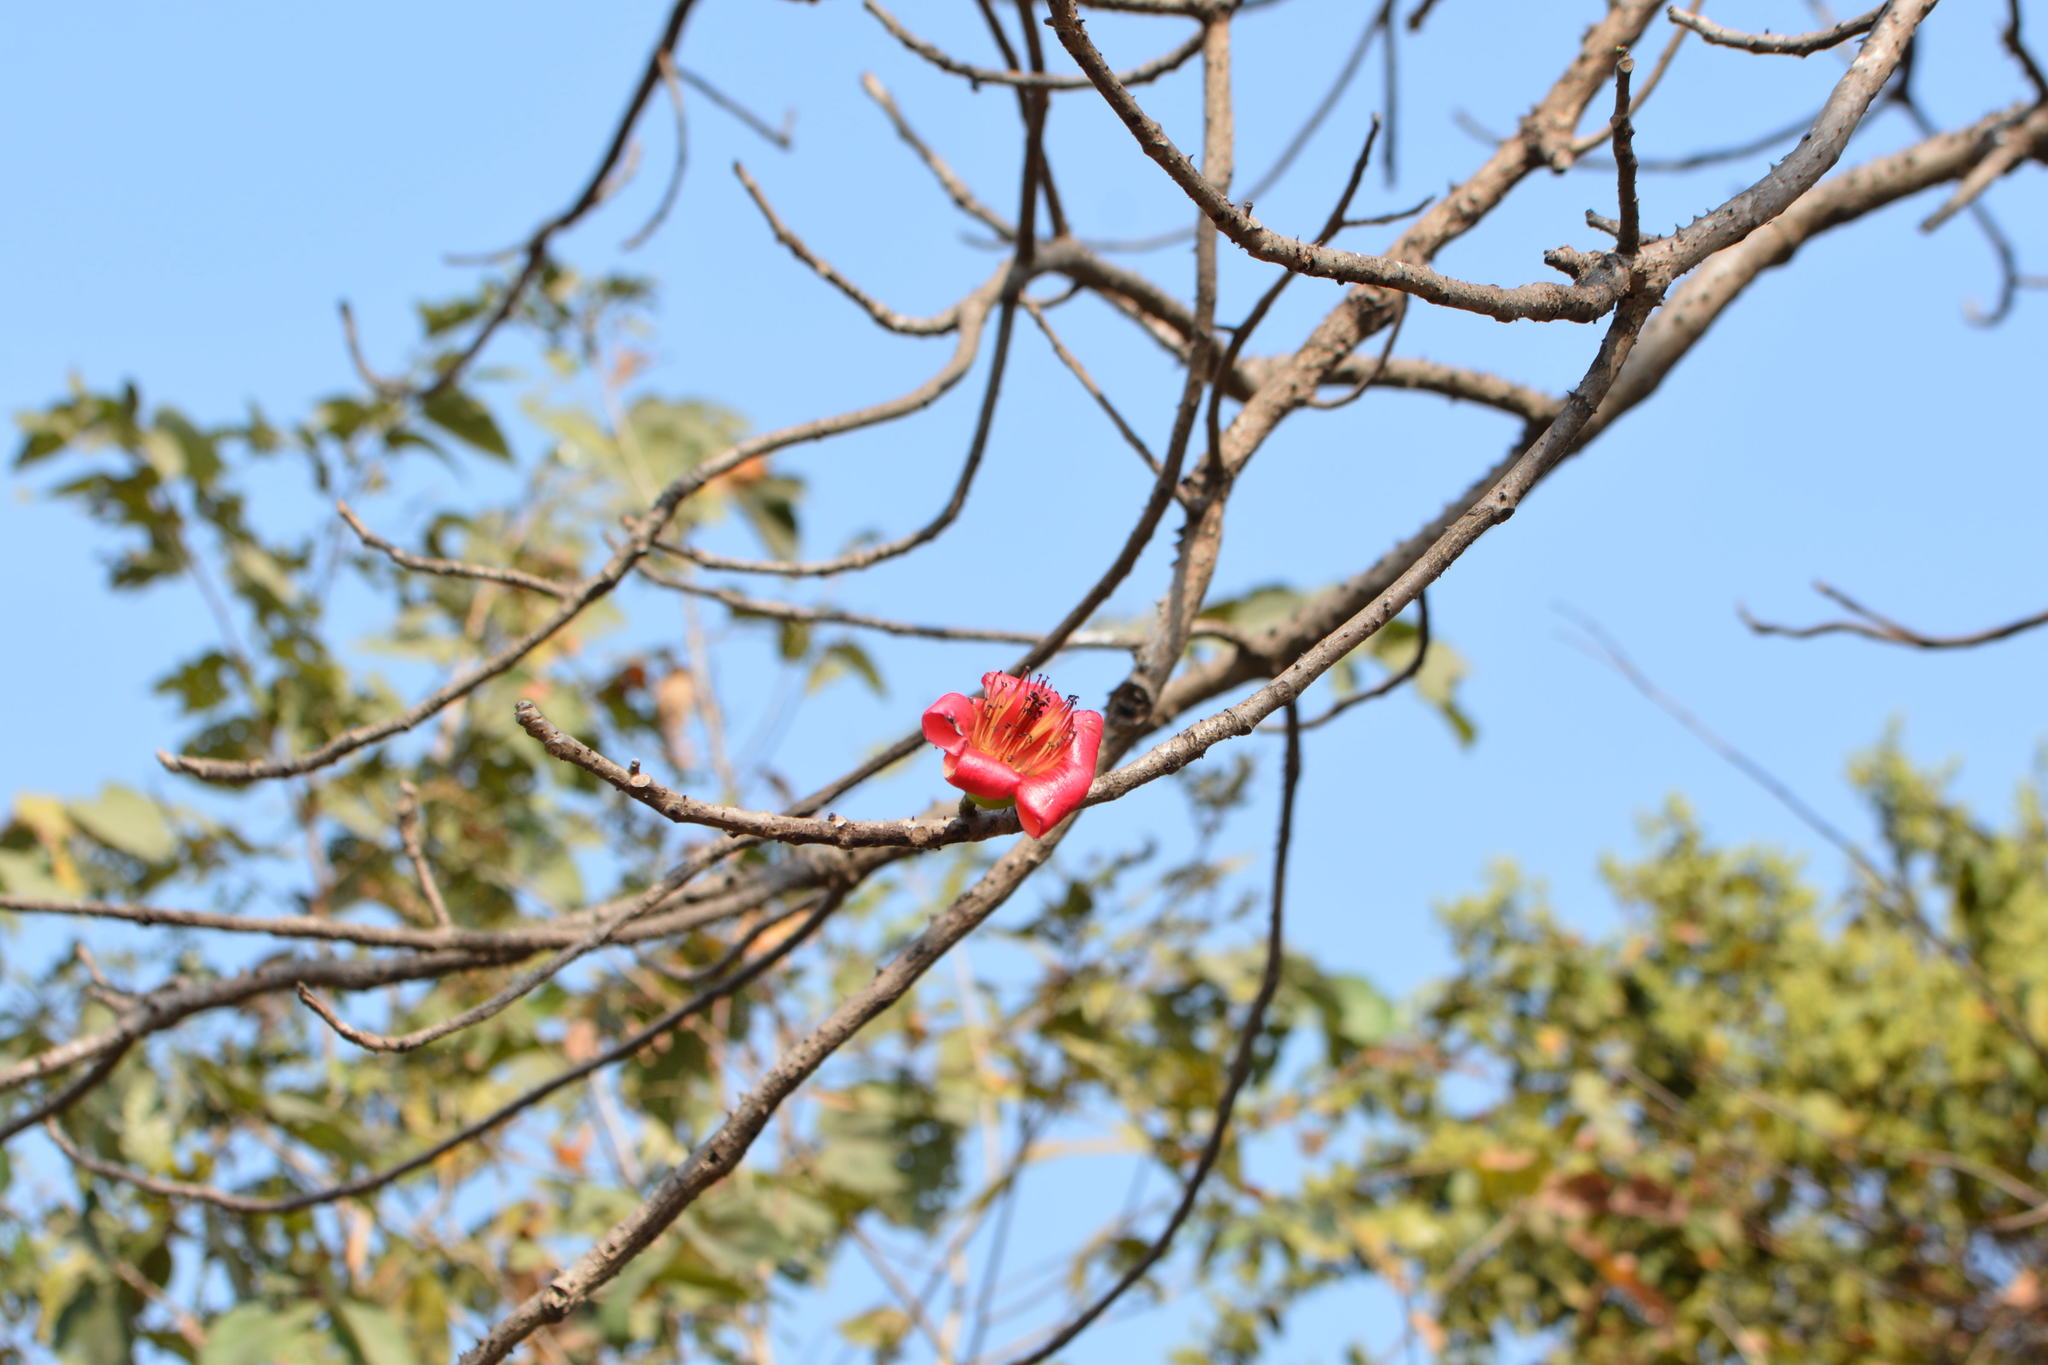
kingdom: Plantae
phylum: Tracheophyta
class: Magnoliopsida
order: Malvales
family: Malvaceae
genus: Bombax
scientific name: Bombax ceiba
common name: Northern-cottonwood
